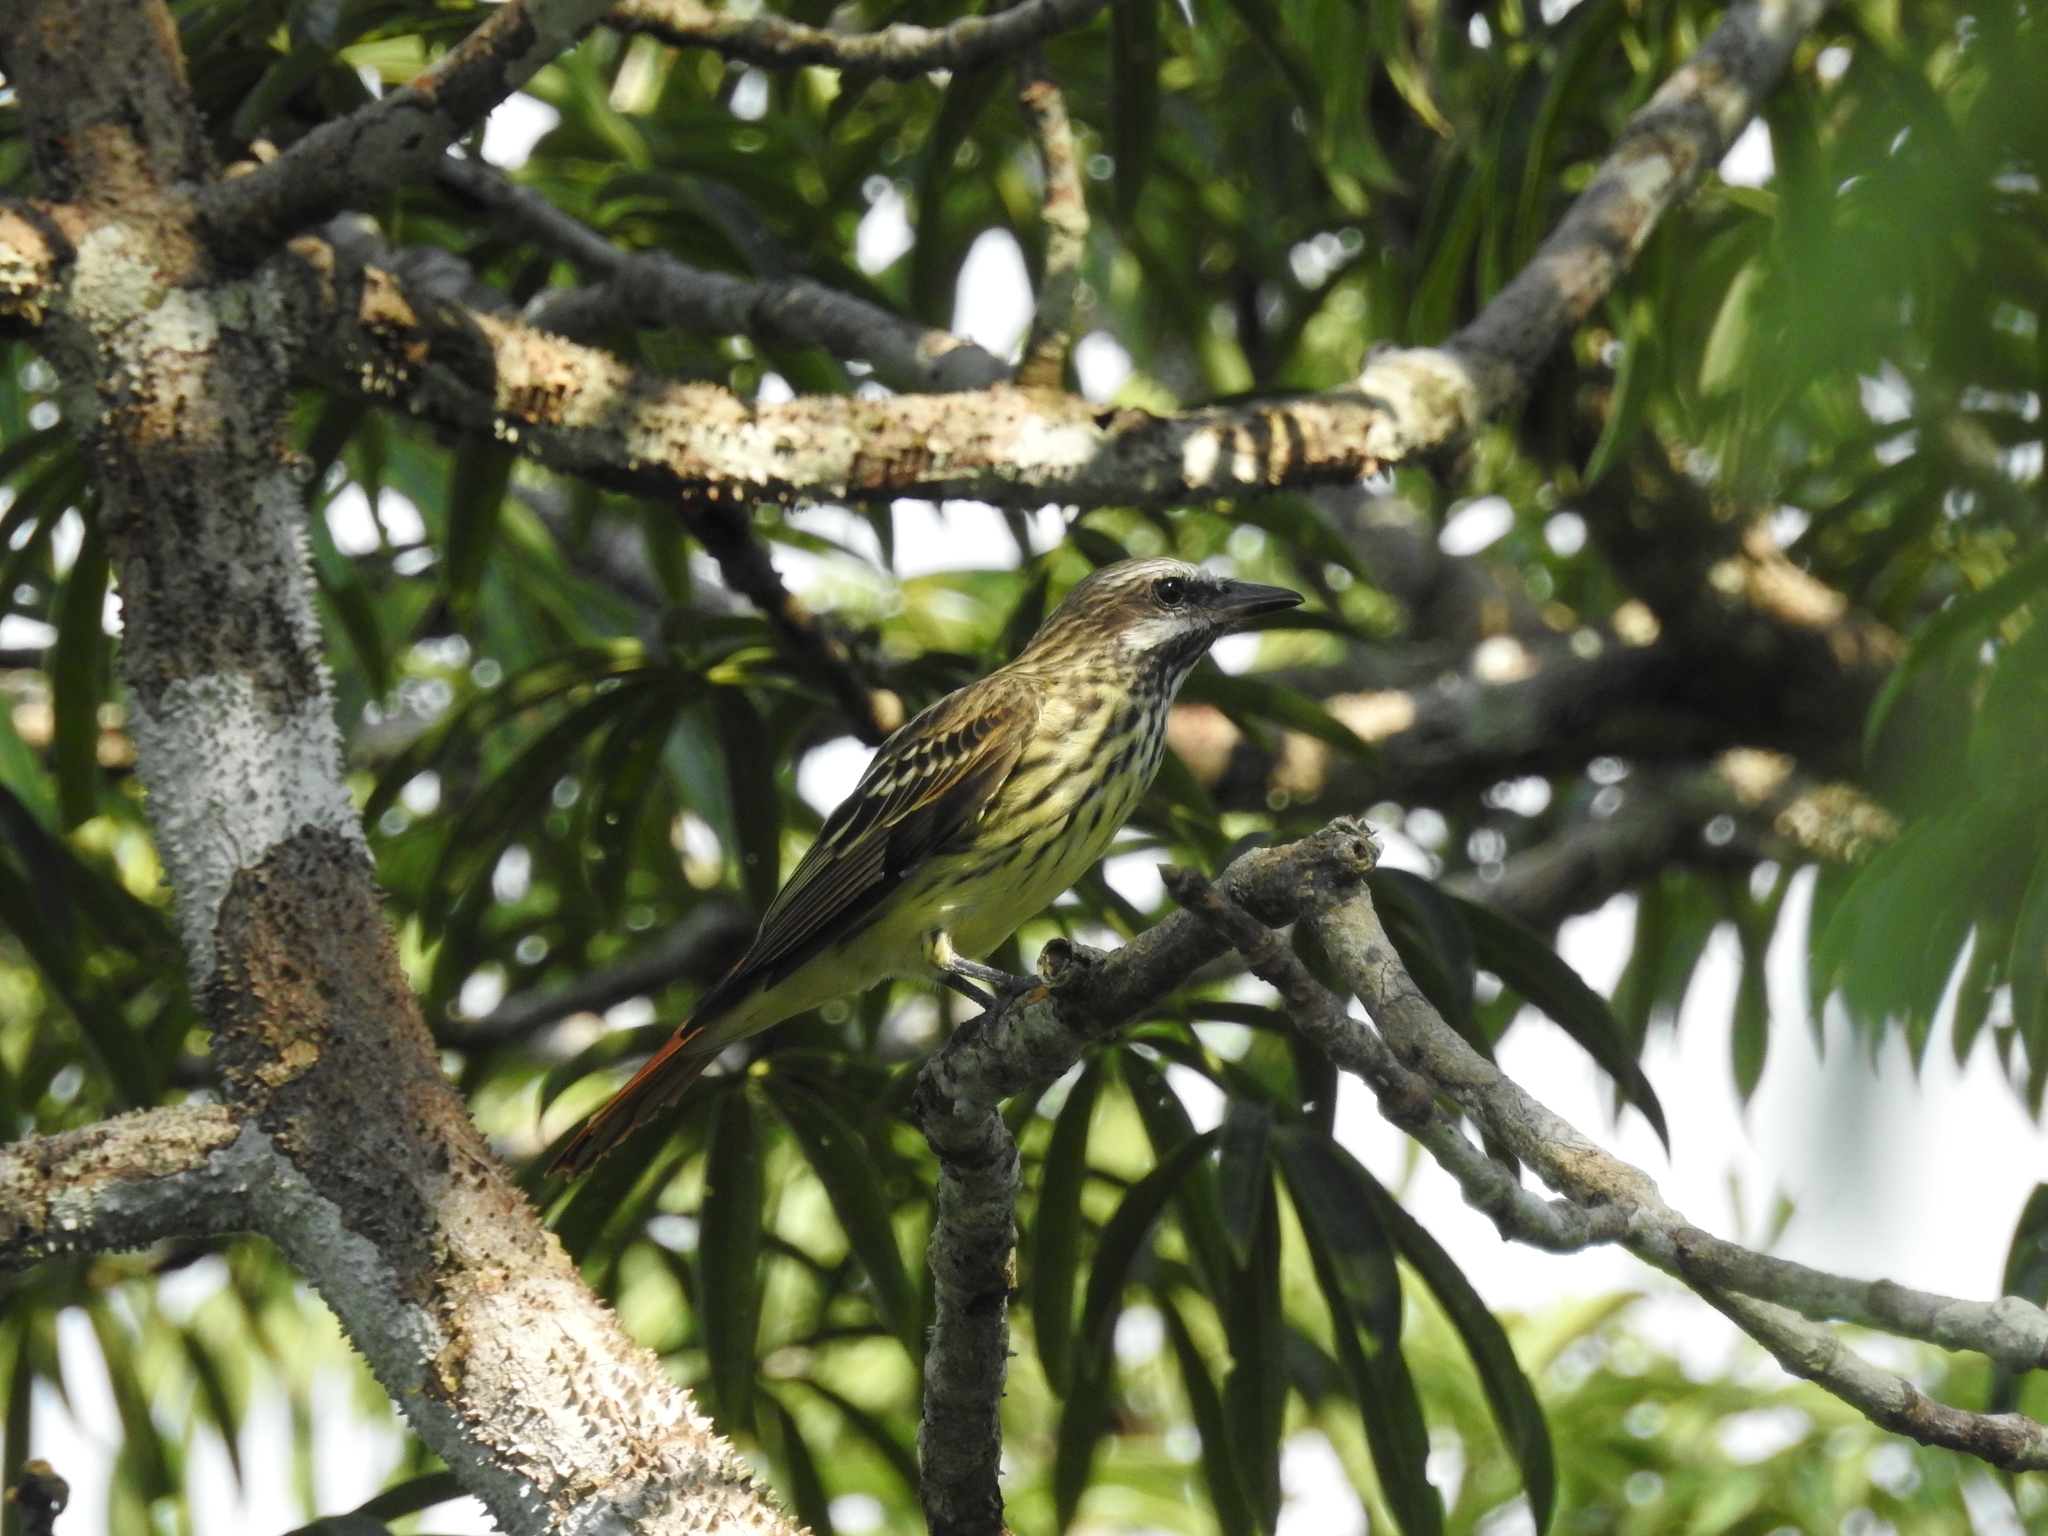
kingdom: Animalia
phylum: Chordata
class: Aves
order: Passeriformes
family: Tyrannidae
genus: Myiodynastes
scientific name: Myiodynastes luteiventris
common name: Sulphur-bellied flycatcher
